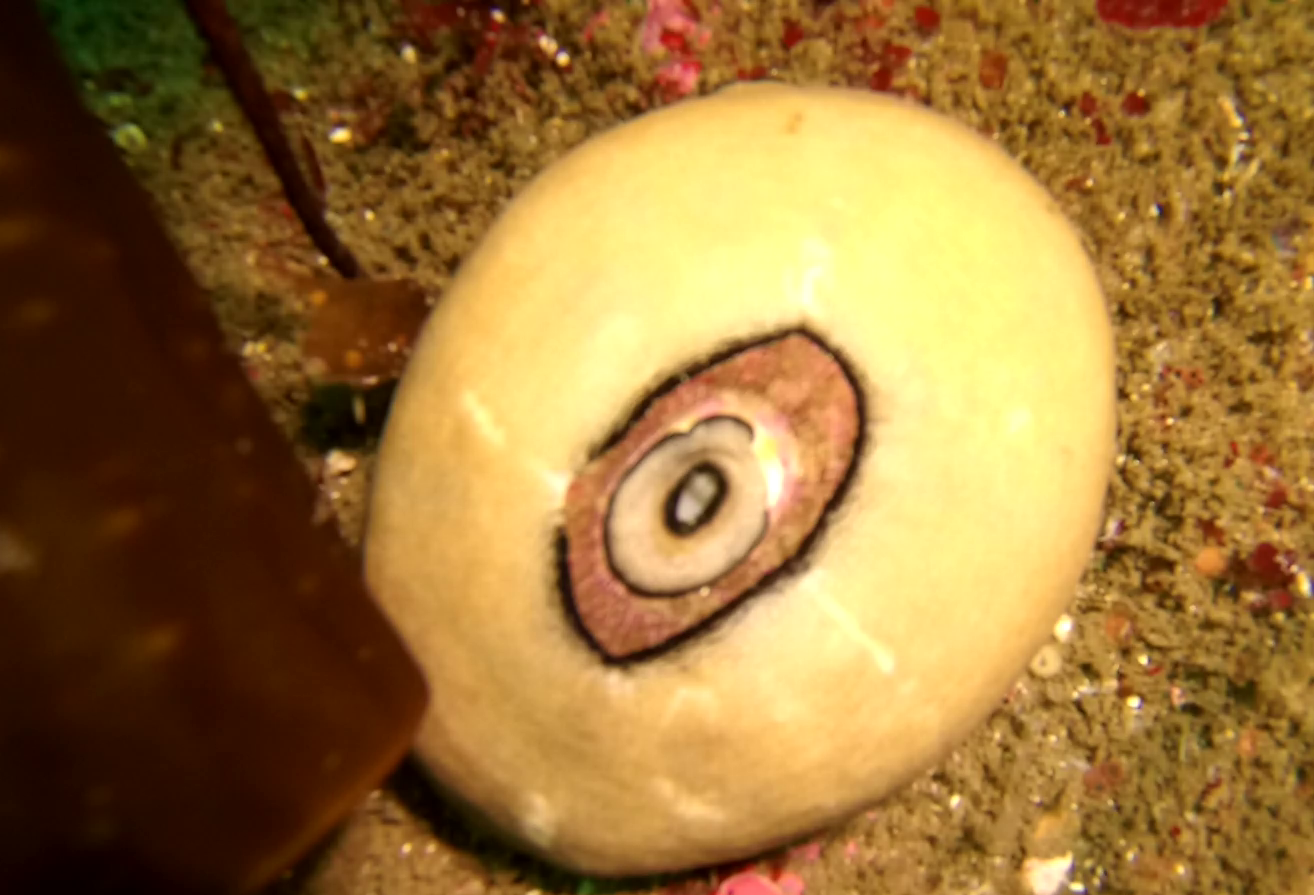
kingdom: Animalia
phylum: Mollusca
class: Gastropoda
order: Lepetellida
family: Fissurellidae
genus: Megathura
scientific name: Megathura crenulata
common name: Giant keyhole limpet
